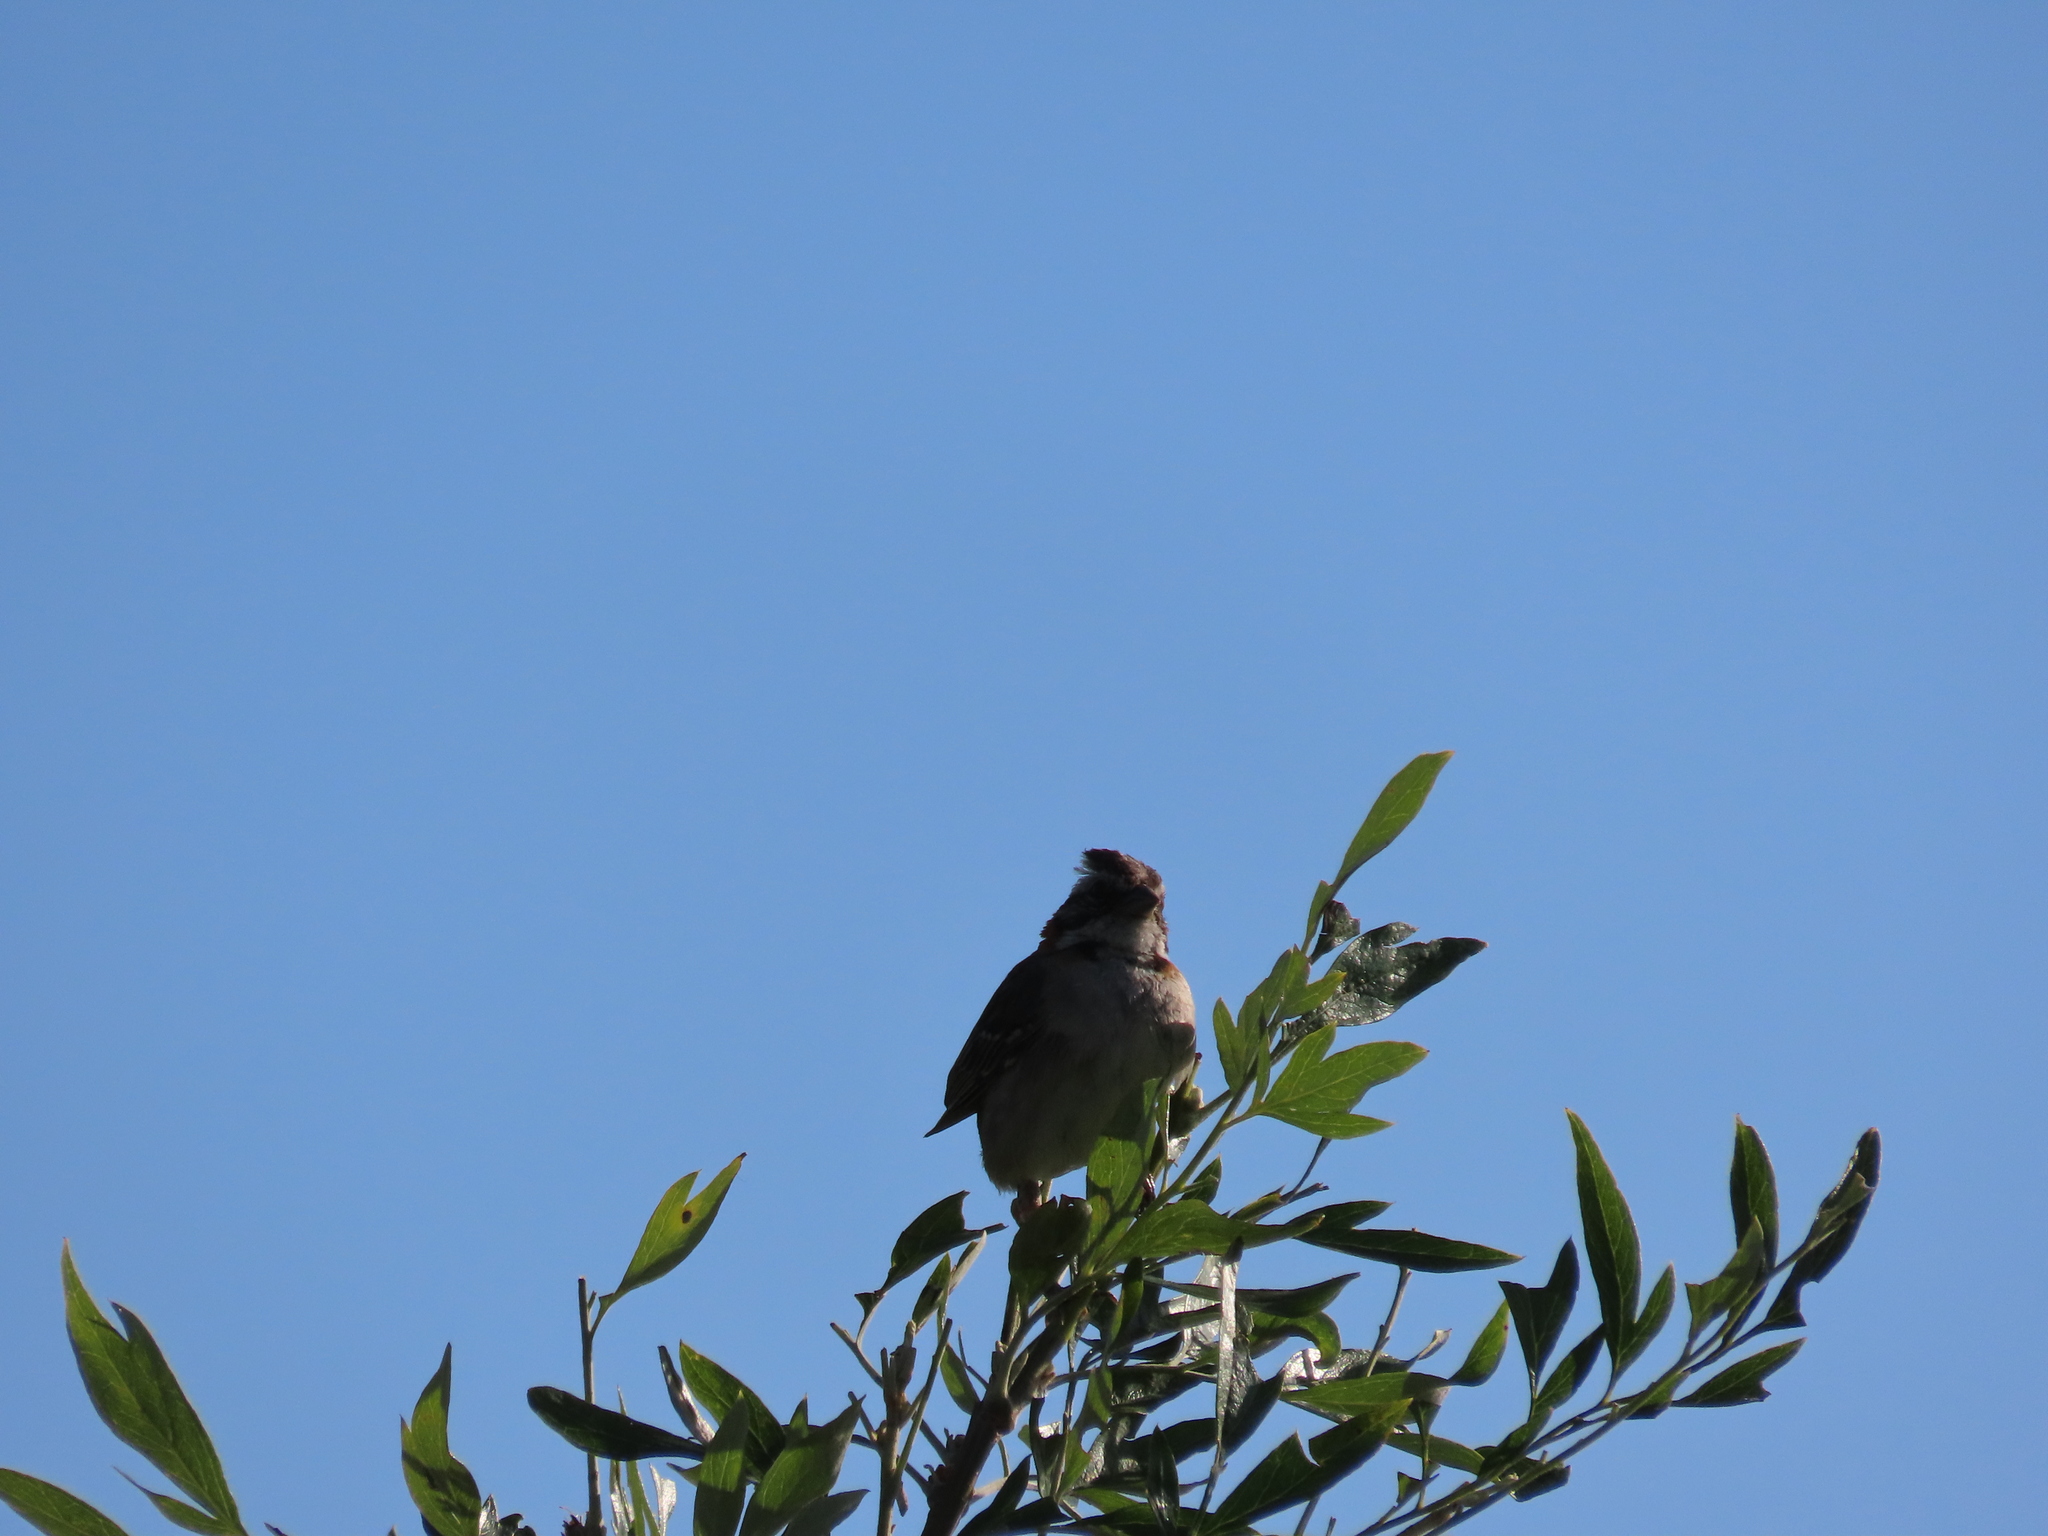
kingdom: Animalia
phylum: Chordata
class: Aves
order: Passeriformes
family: Passerellidae
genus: Zonotrichia
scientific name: Zonotrichia capensis
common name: Rufous-collared sparrow
